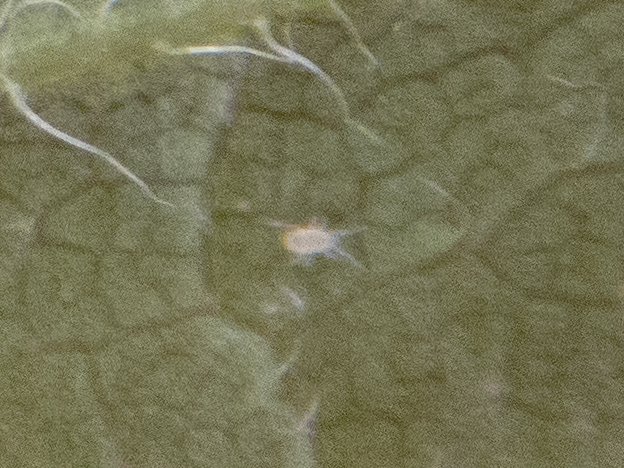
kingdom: Animalia
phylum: Arthropoda
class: Insecta
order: Diptera
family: Cecidomyiidae
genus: Asteromyia
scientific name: Asteromyia carbonifera
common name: Carbonifera goldenrod gall midge
